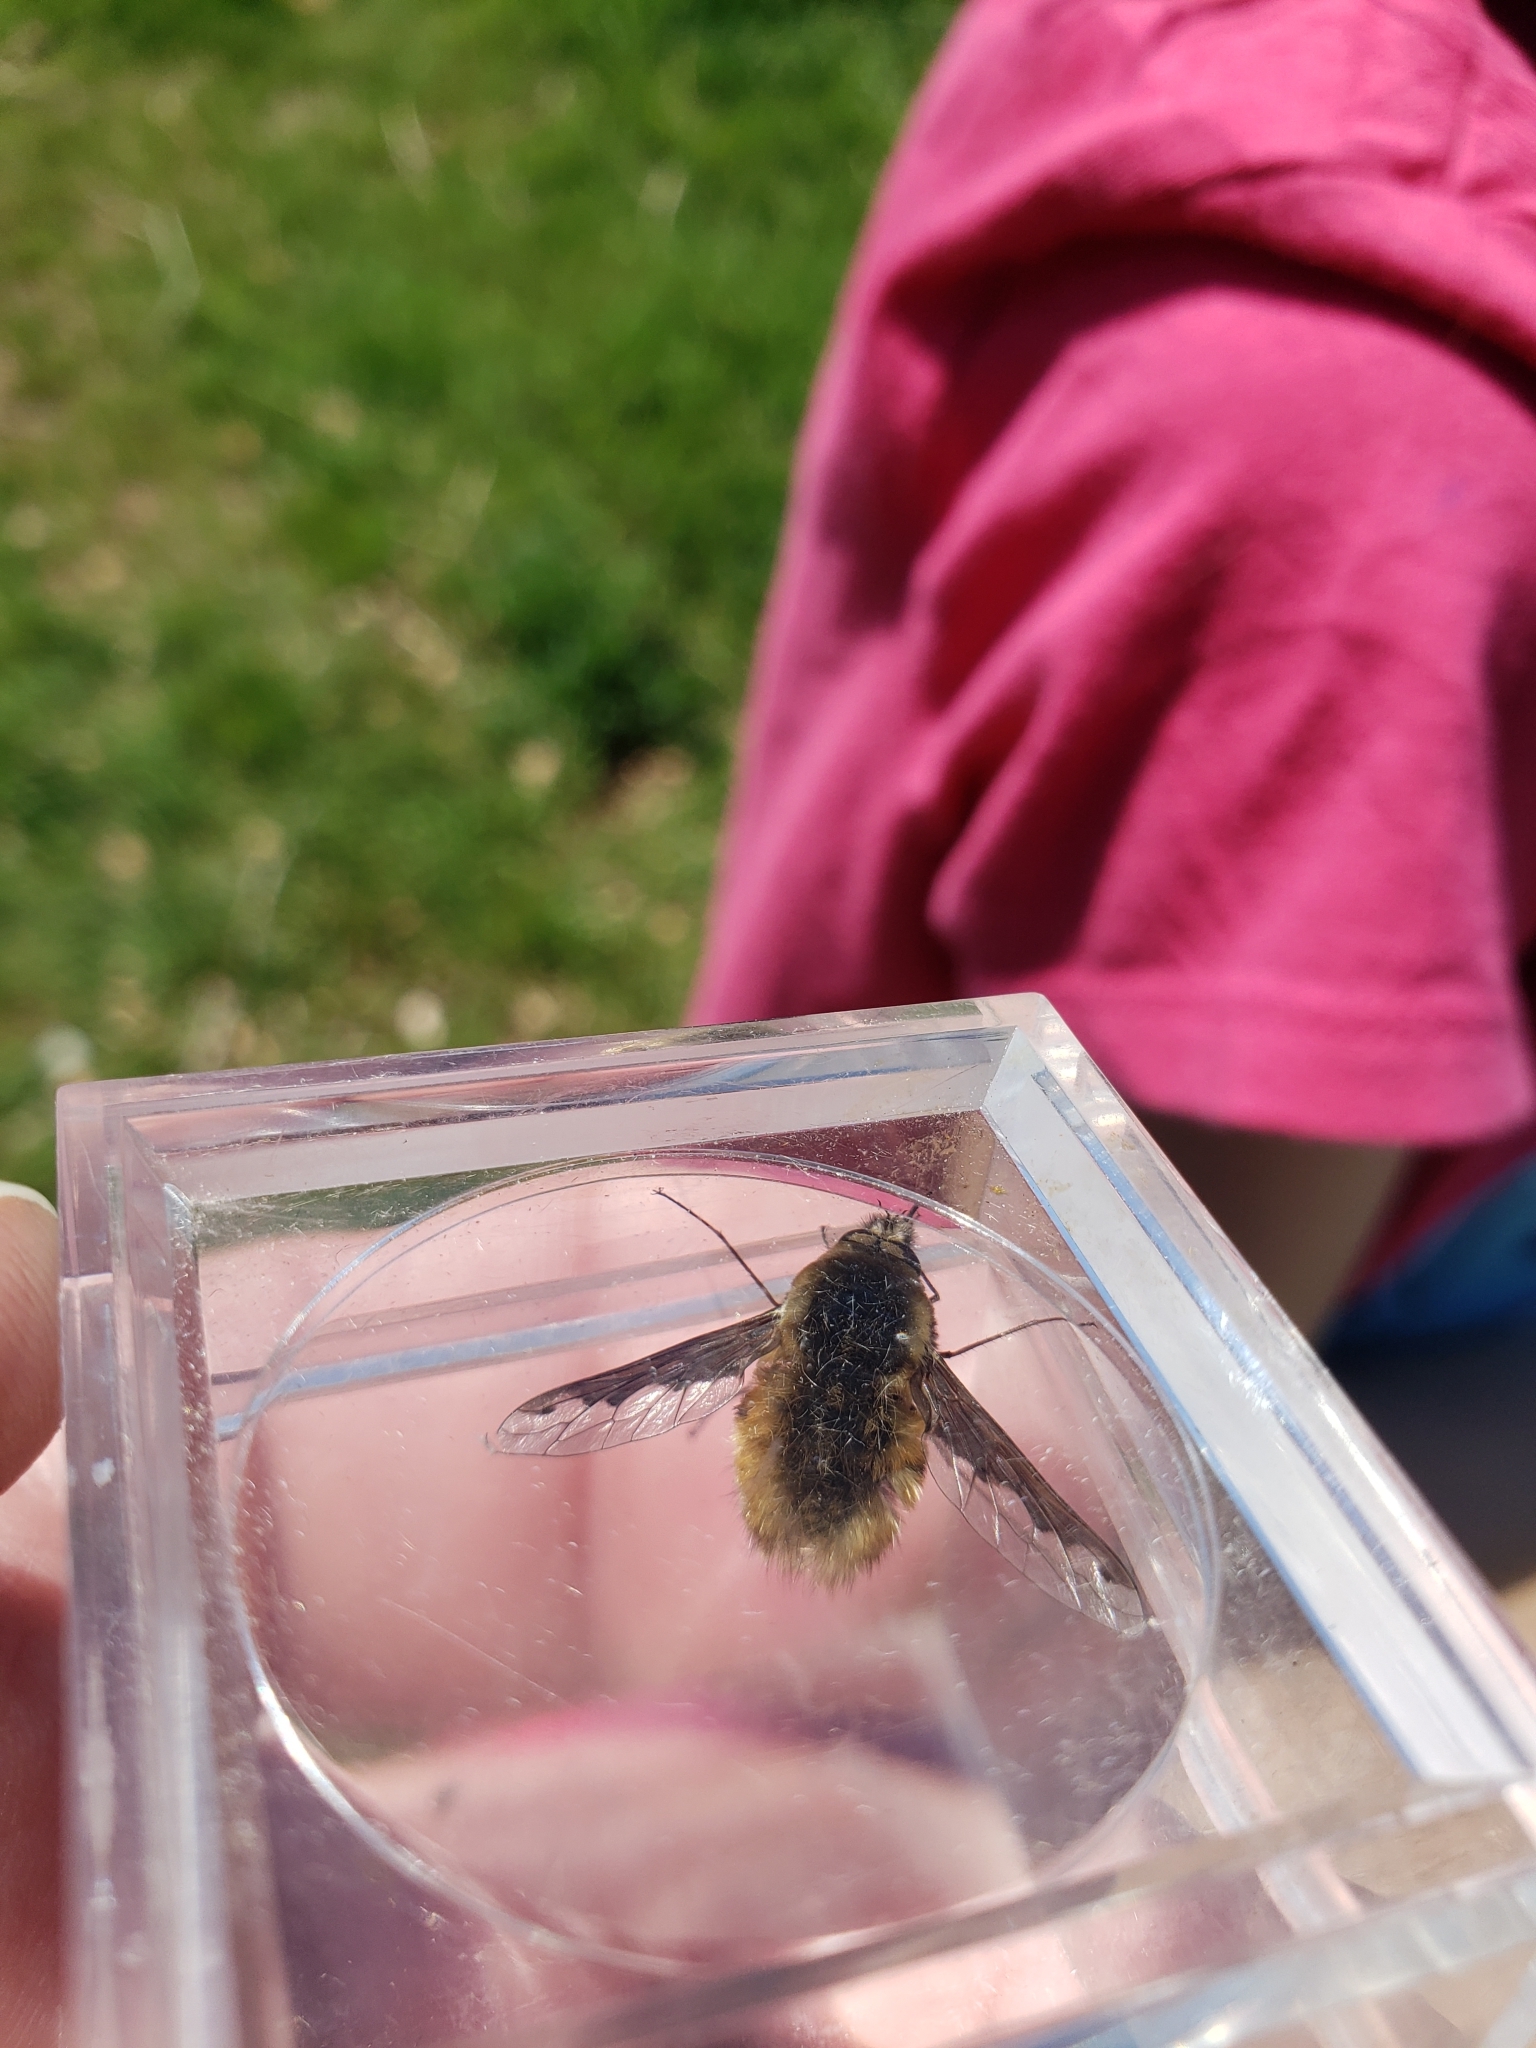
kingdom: Animalia
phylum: Arthropoda
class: Insecta
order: Diptera
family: Bombyliidae
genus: Bombylius
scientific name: Bombylius major
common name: Bee fly
